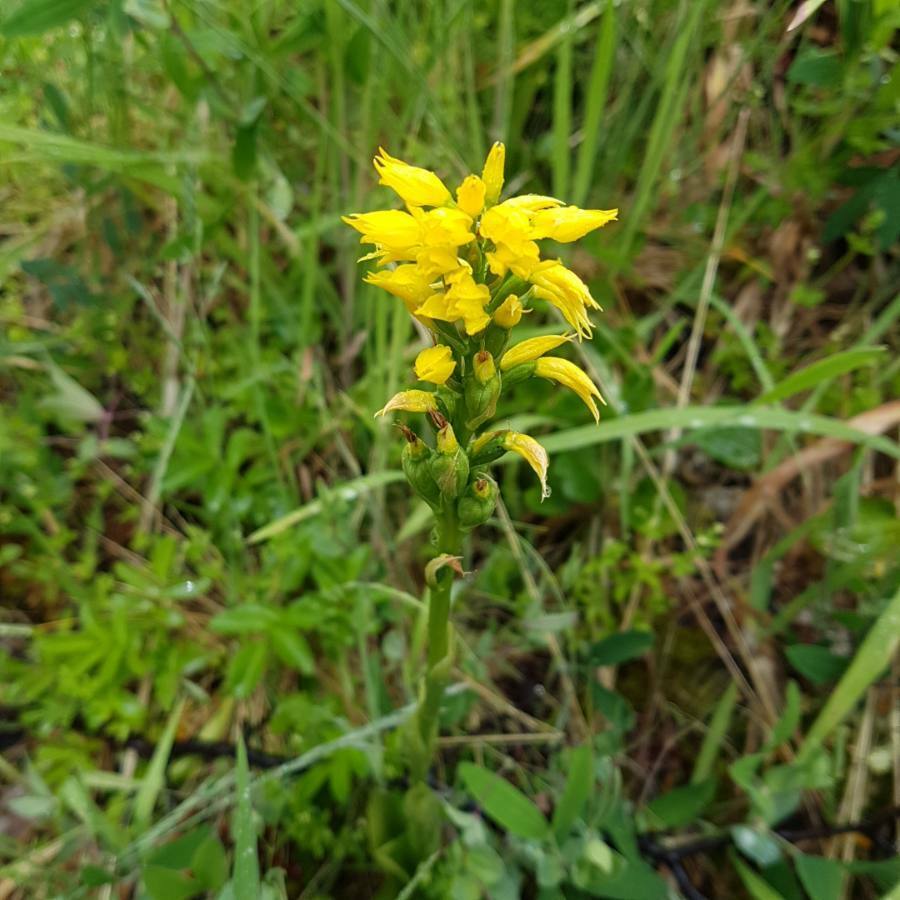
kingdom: Plantae
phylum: Tracheophyta
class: Liliopsida
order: Asparagales
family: Orchidaceae
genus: Gavilea
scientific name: Gavilea lutea
